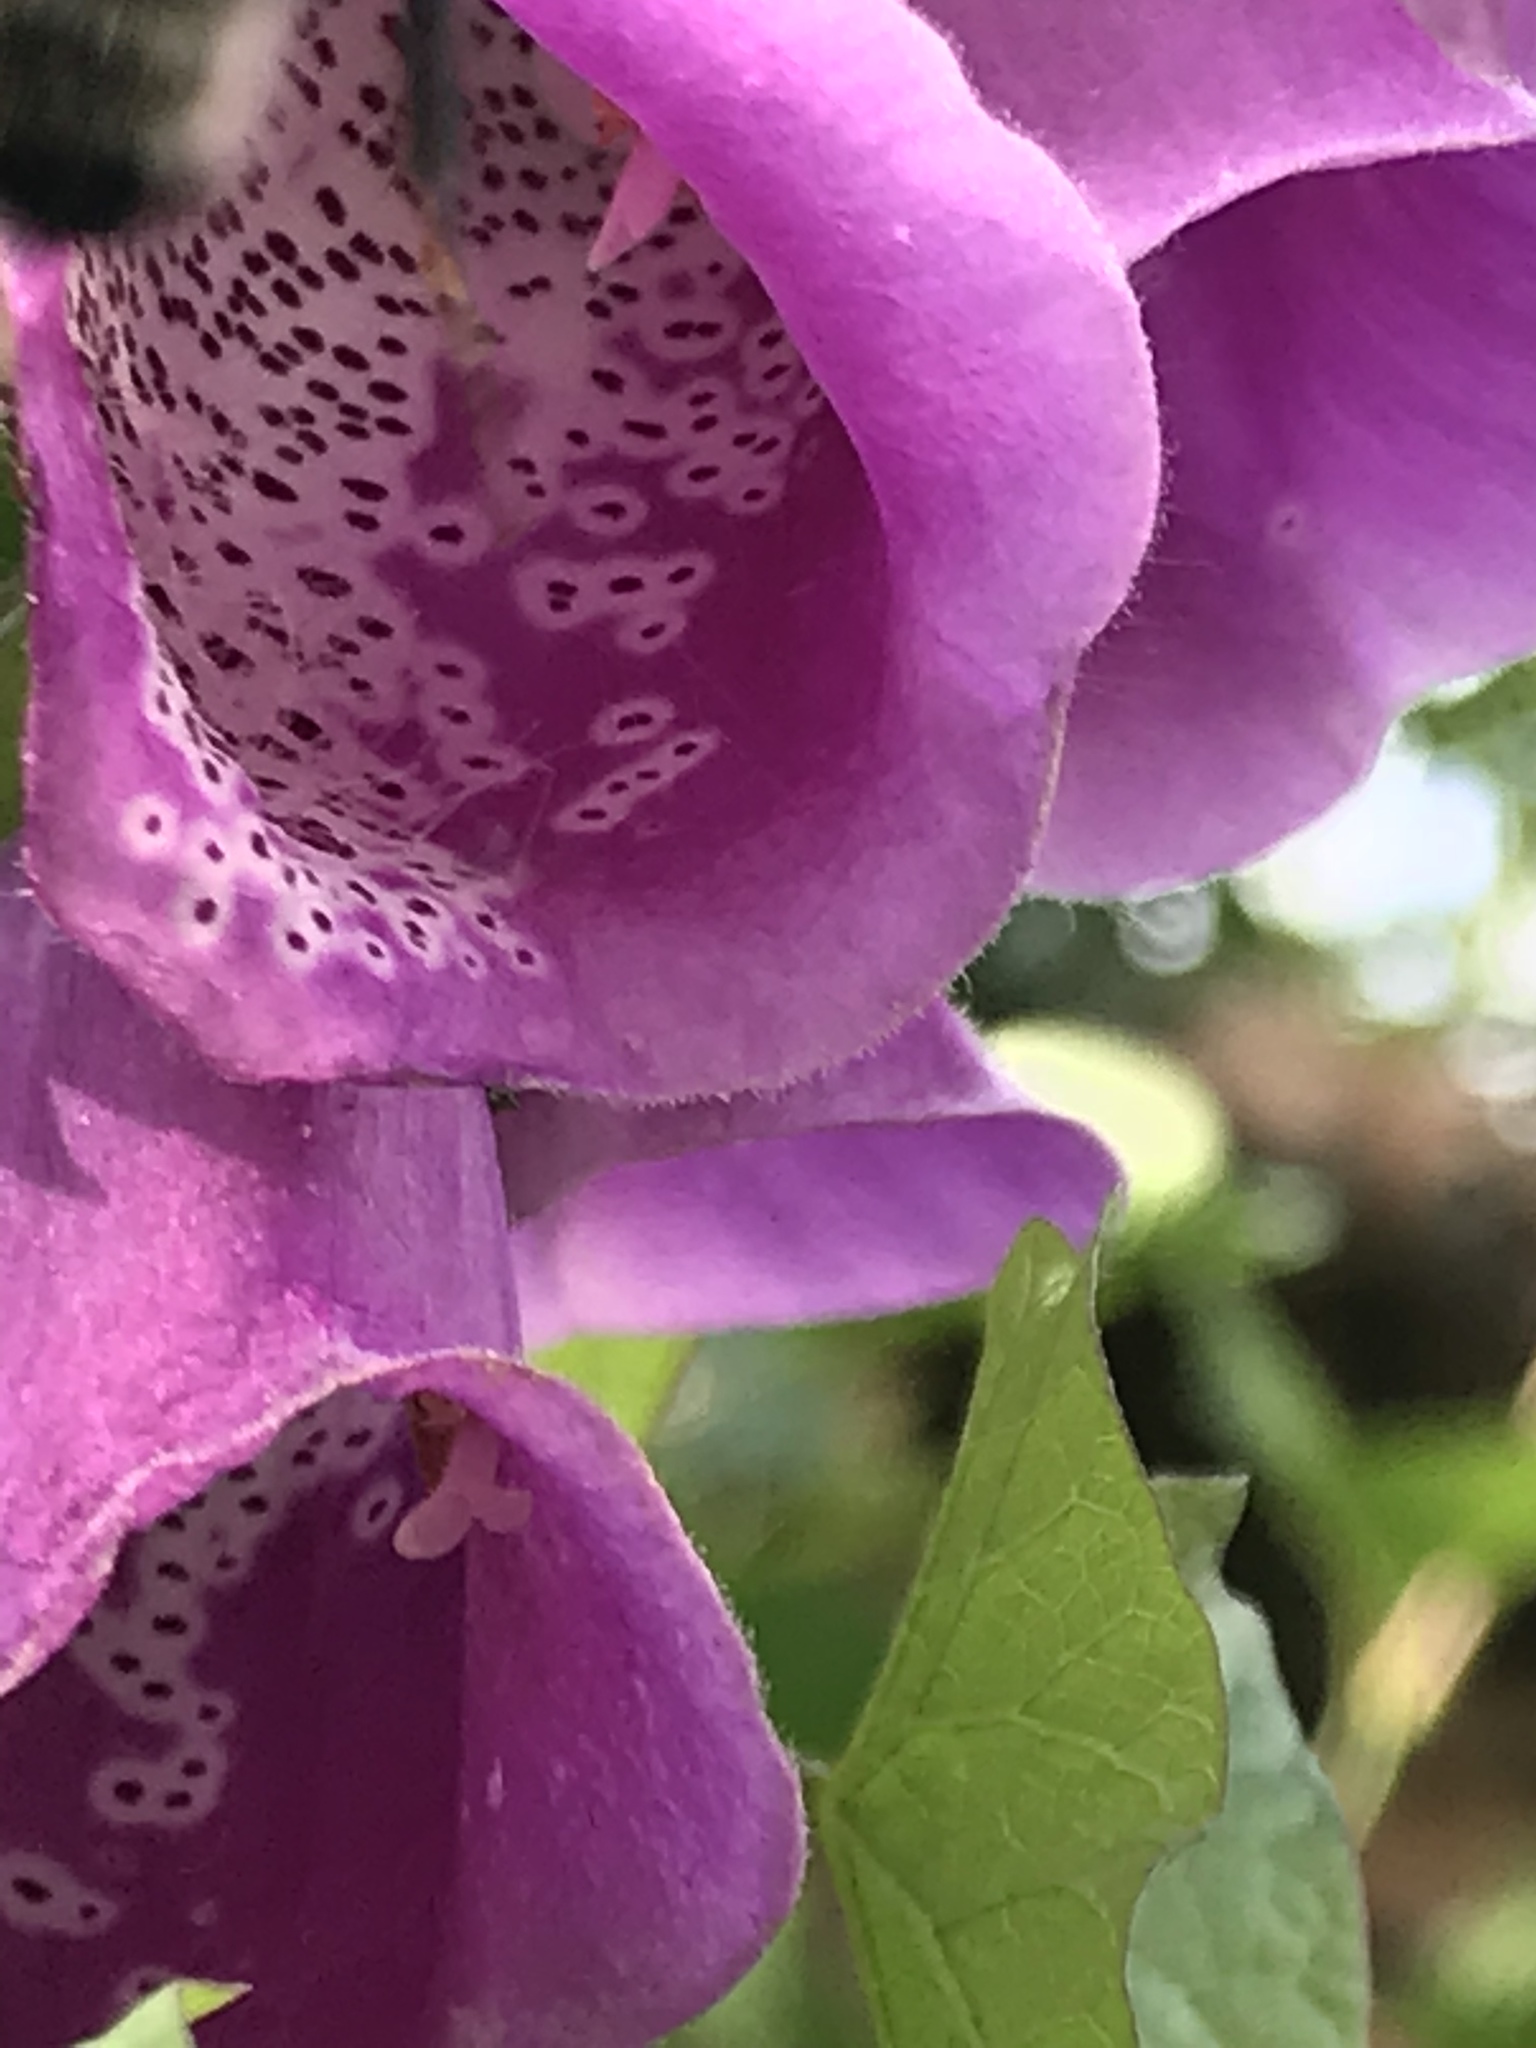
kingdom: Plantae
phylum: Tracheophyta
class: Magnoliopsida
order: Lamiales
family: Plantaginaceae
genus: Digitalis
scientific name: Digitalis purpurea
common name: Foxglove
